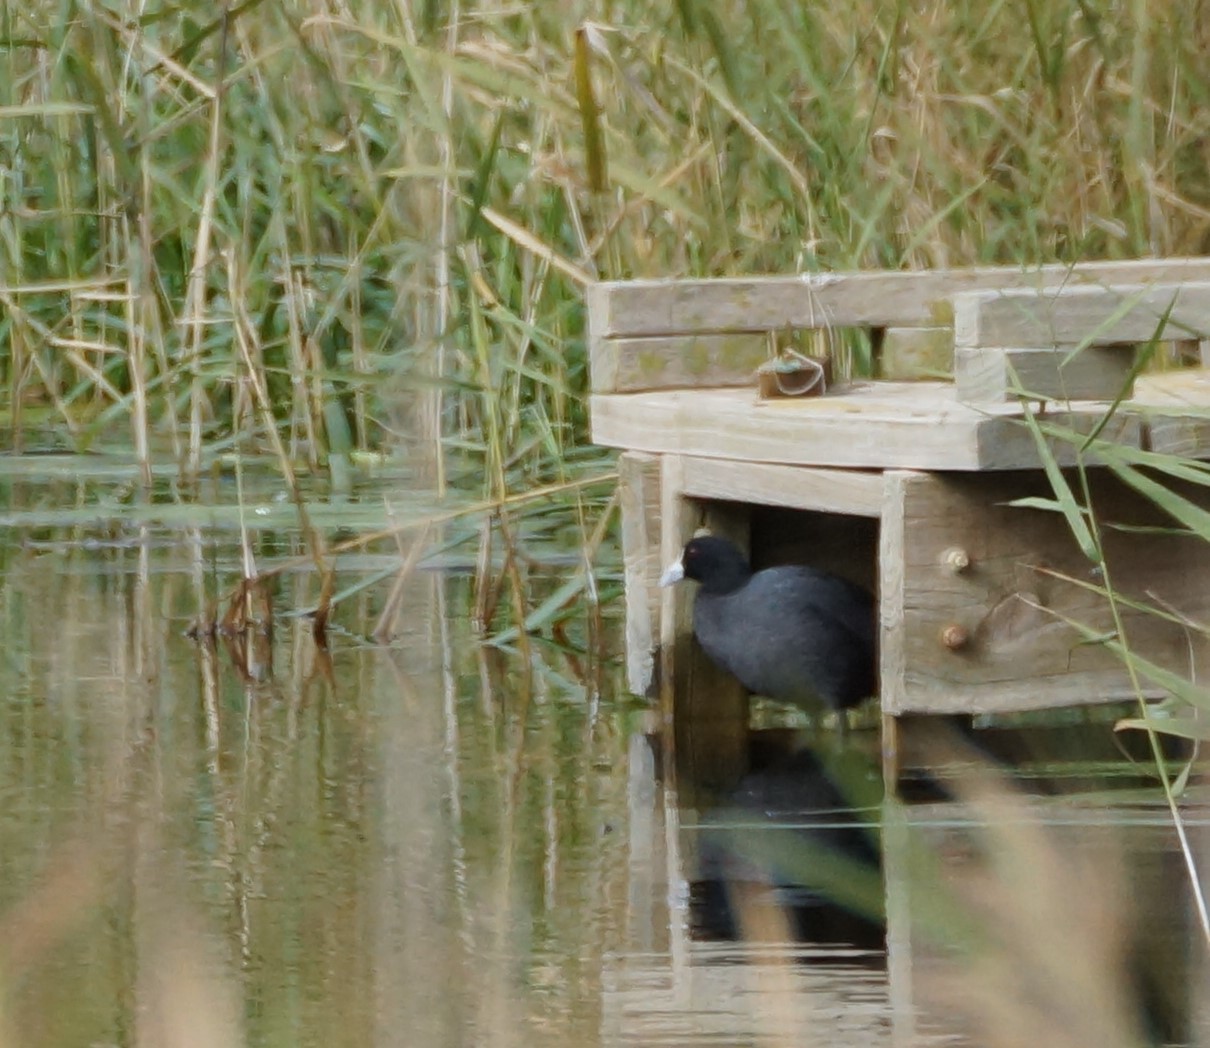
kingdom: Animalia
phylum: Chordata
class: Aves
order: Gruiformes
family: Rallidae
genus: Fulica
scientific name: Fulica atra
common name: Eurasian coot
